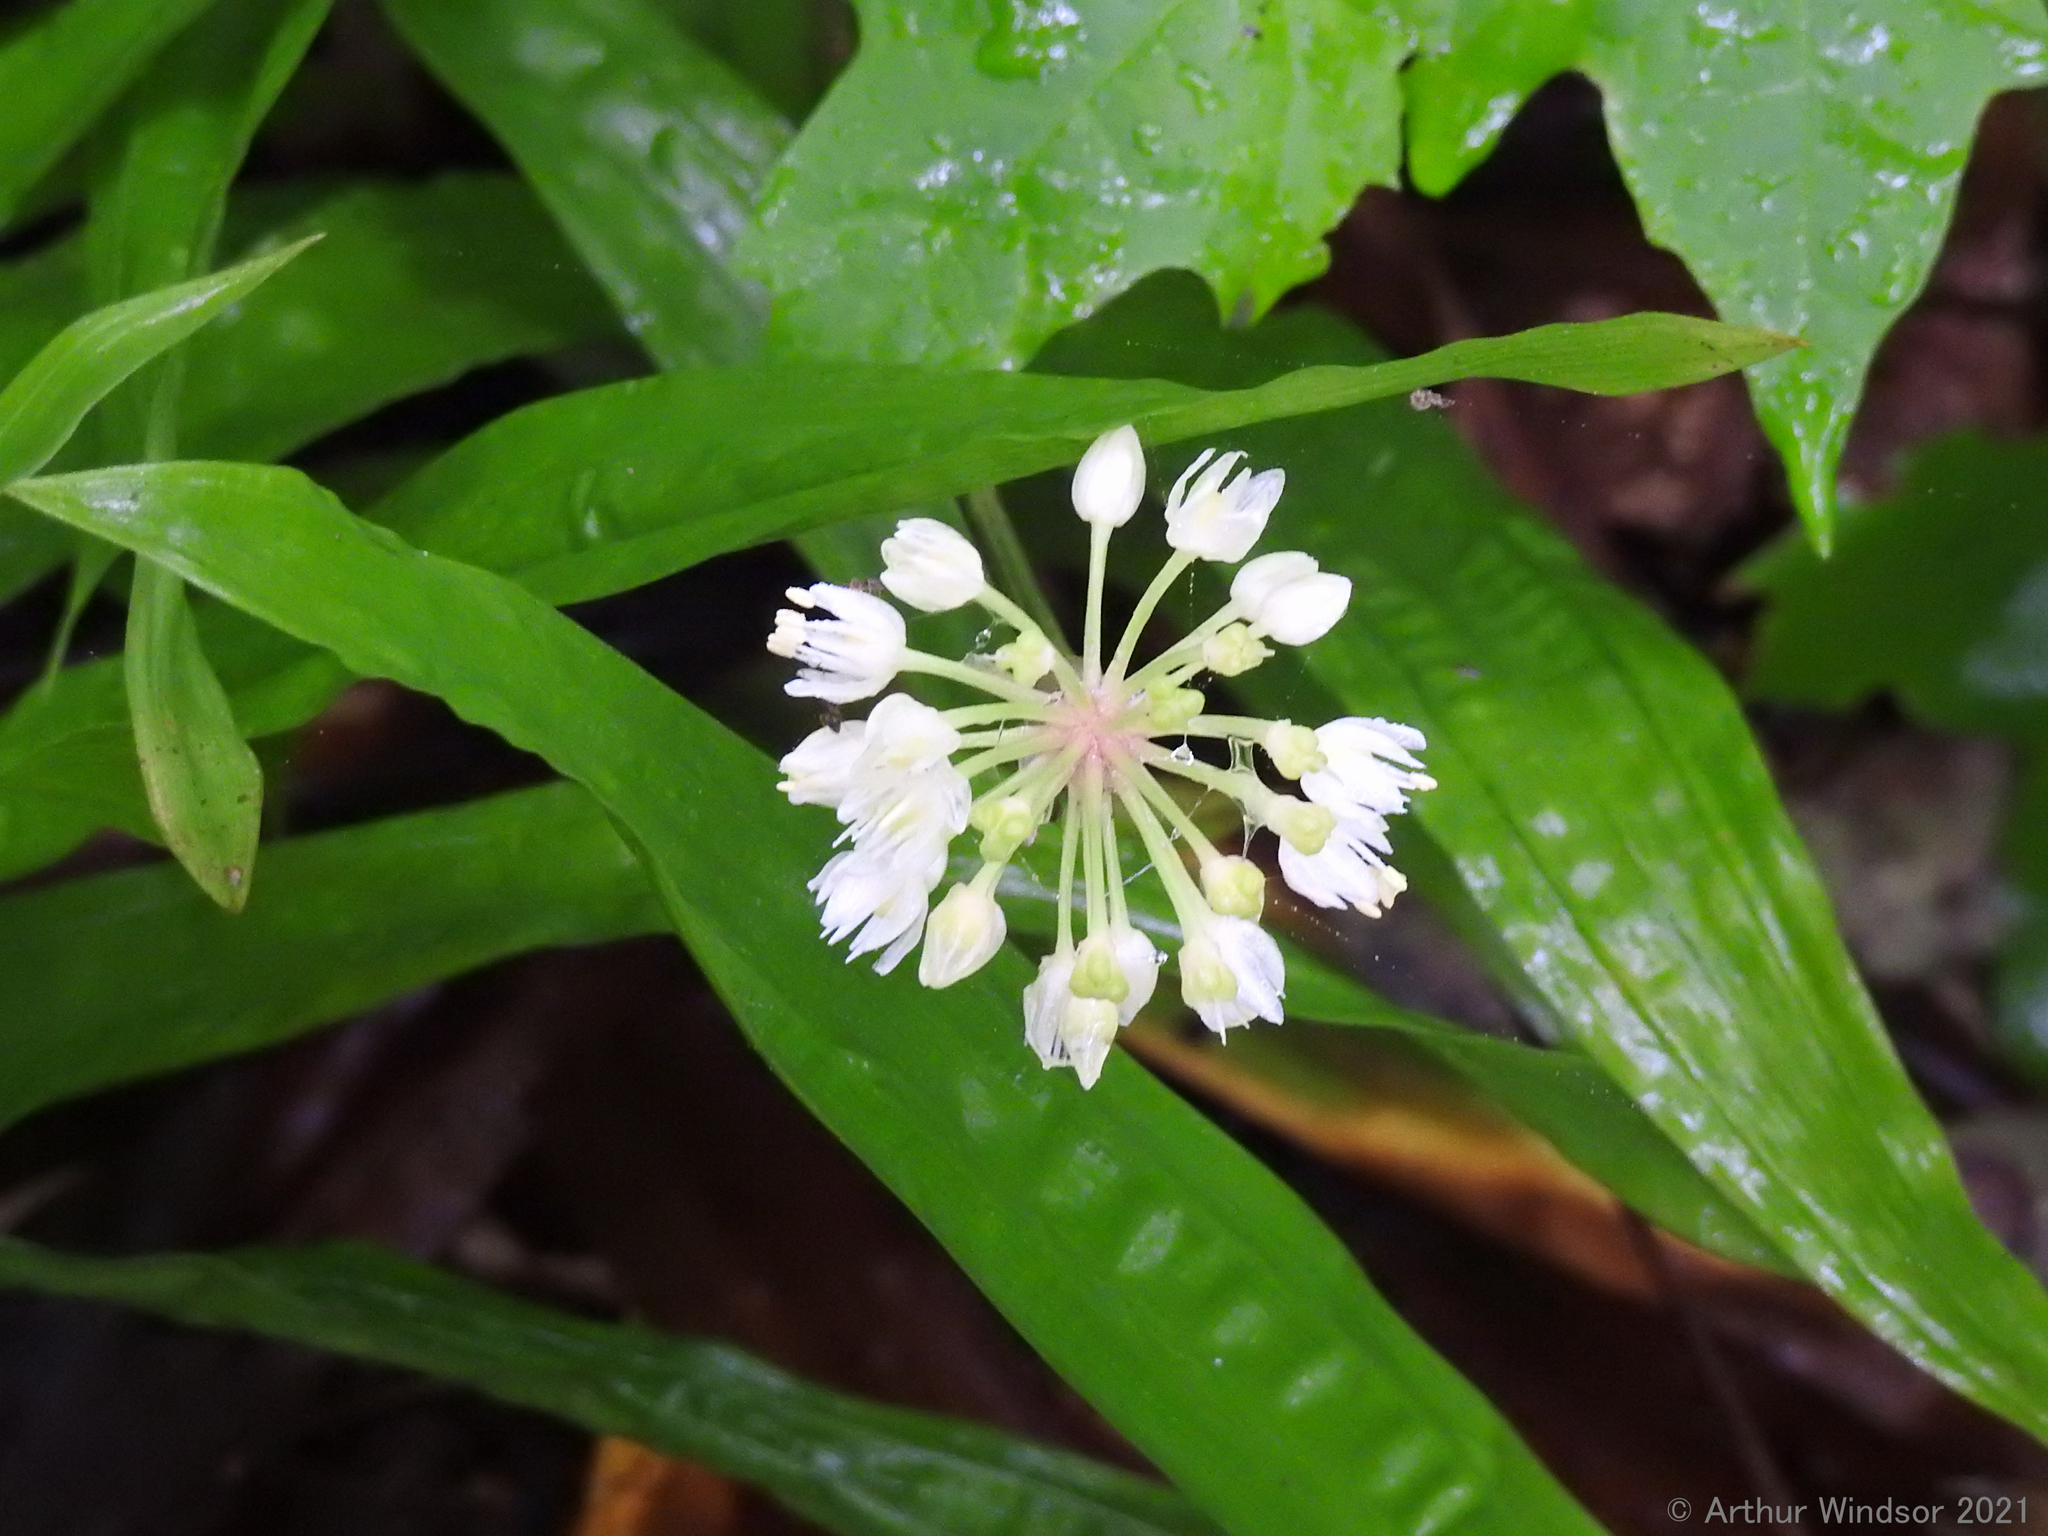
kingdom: Plantae
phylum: Tracheophyta
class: Liliopsida
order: Asparagales
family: Amaryllidaceae
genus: Allium
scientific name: Allium tricoccum
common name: Ramp
